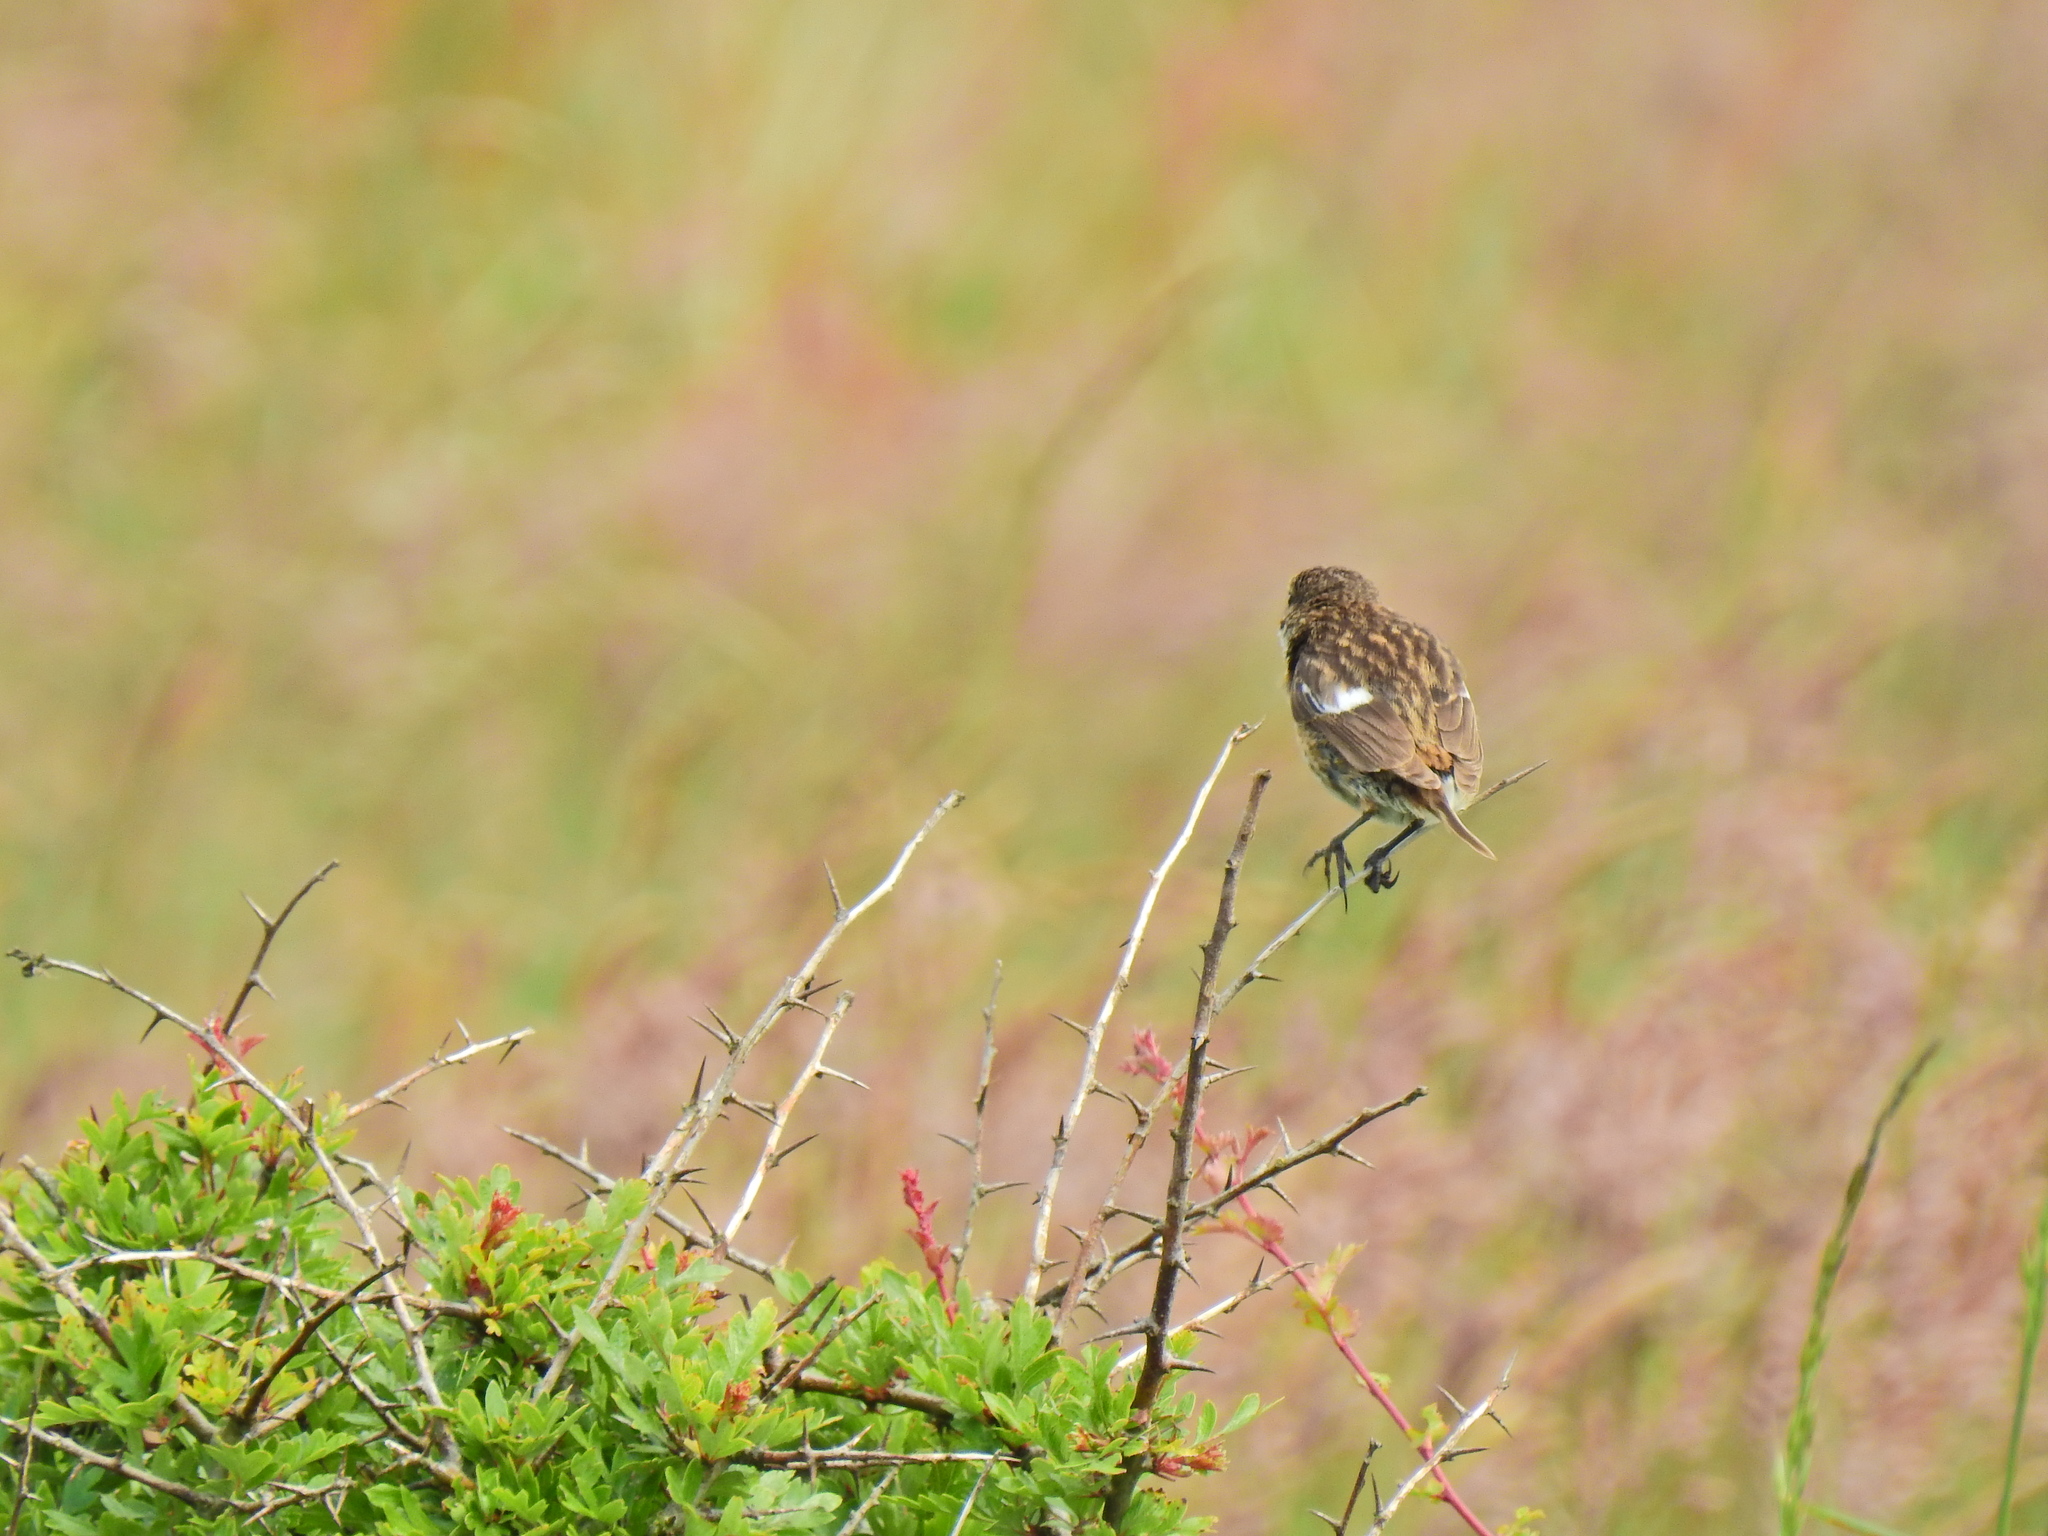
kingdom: Animalia
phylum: Chordata
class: Aves
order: Passeriformes
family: Muscicapidae
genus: Saxicola
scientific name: Saxicola rubicola
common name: European stonechat
